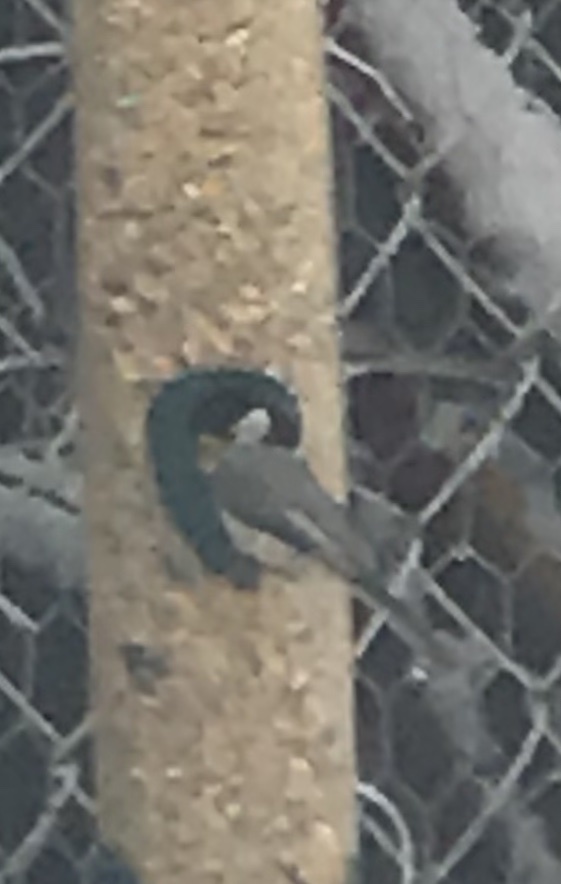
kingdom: Animalia
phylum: Chordata
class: Aves
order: Passeriformes
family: Paridae
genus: Poecile
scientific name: Poecile carolinensis
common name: Carolina chickadee
